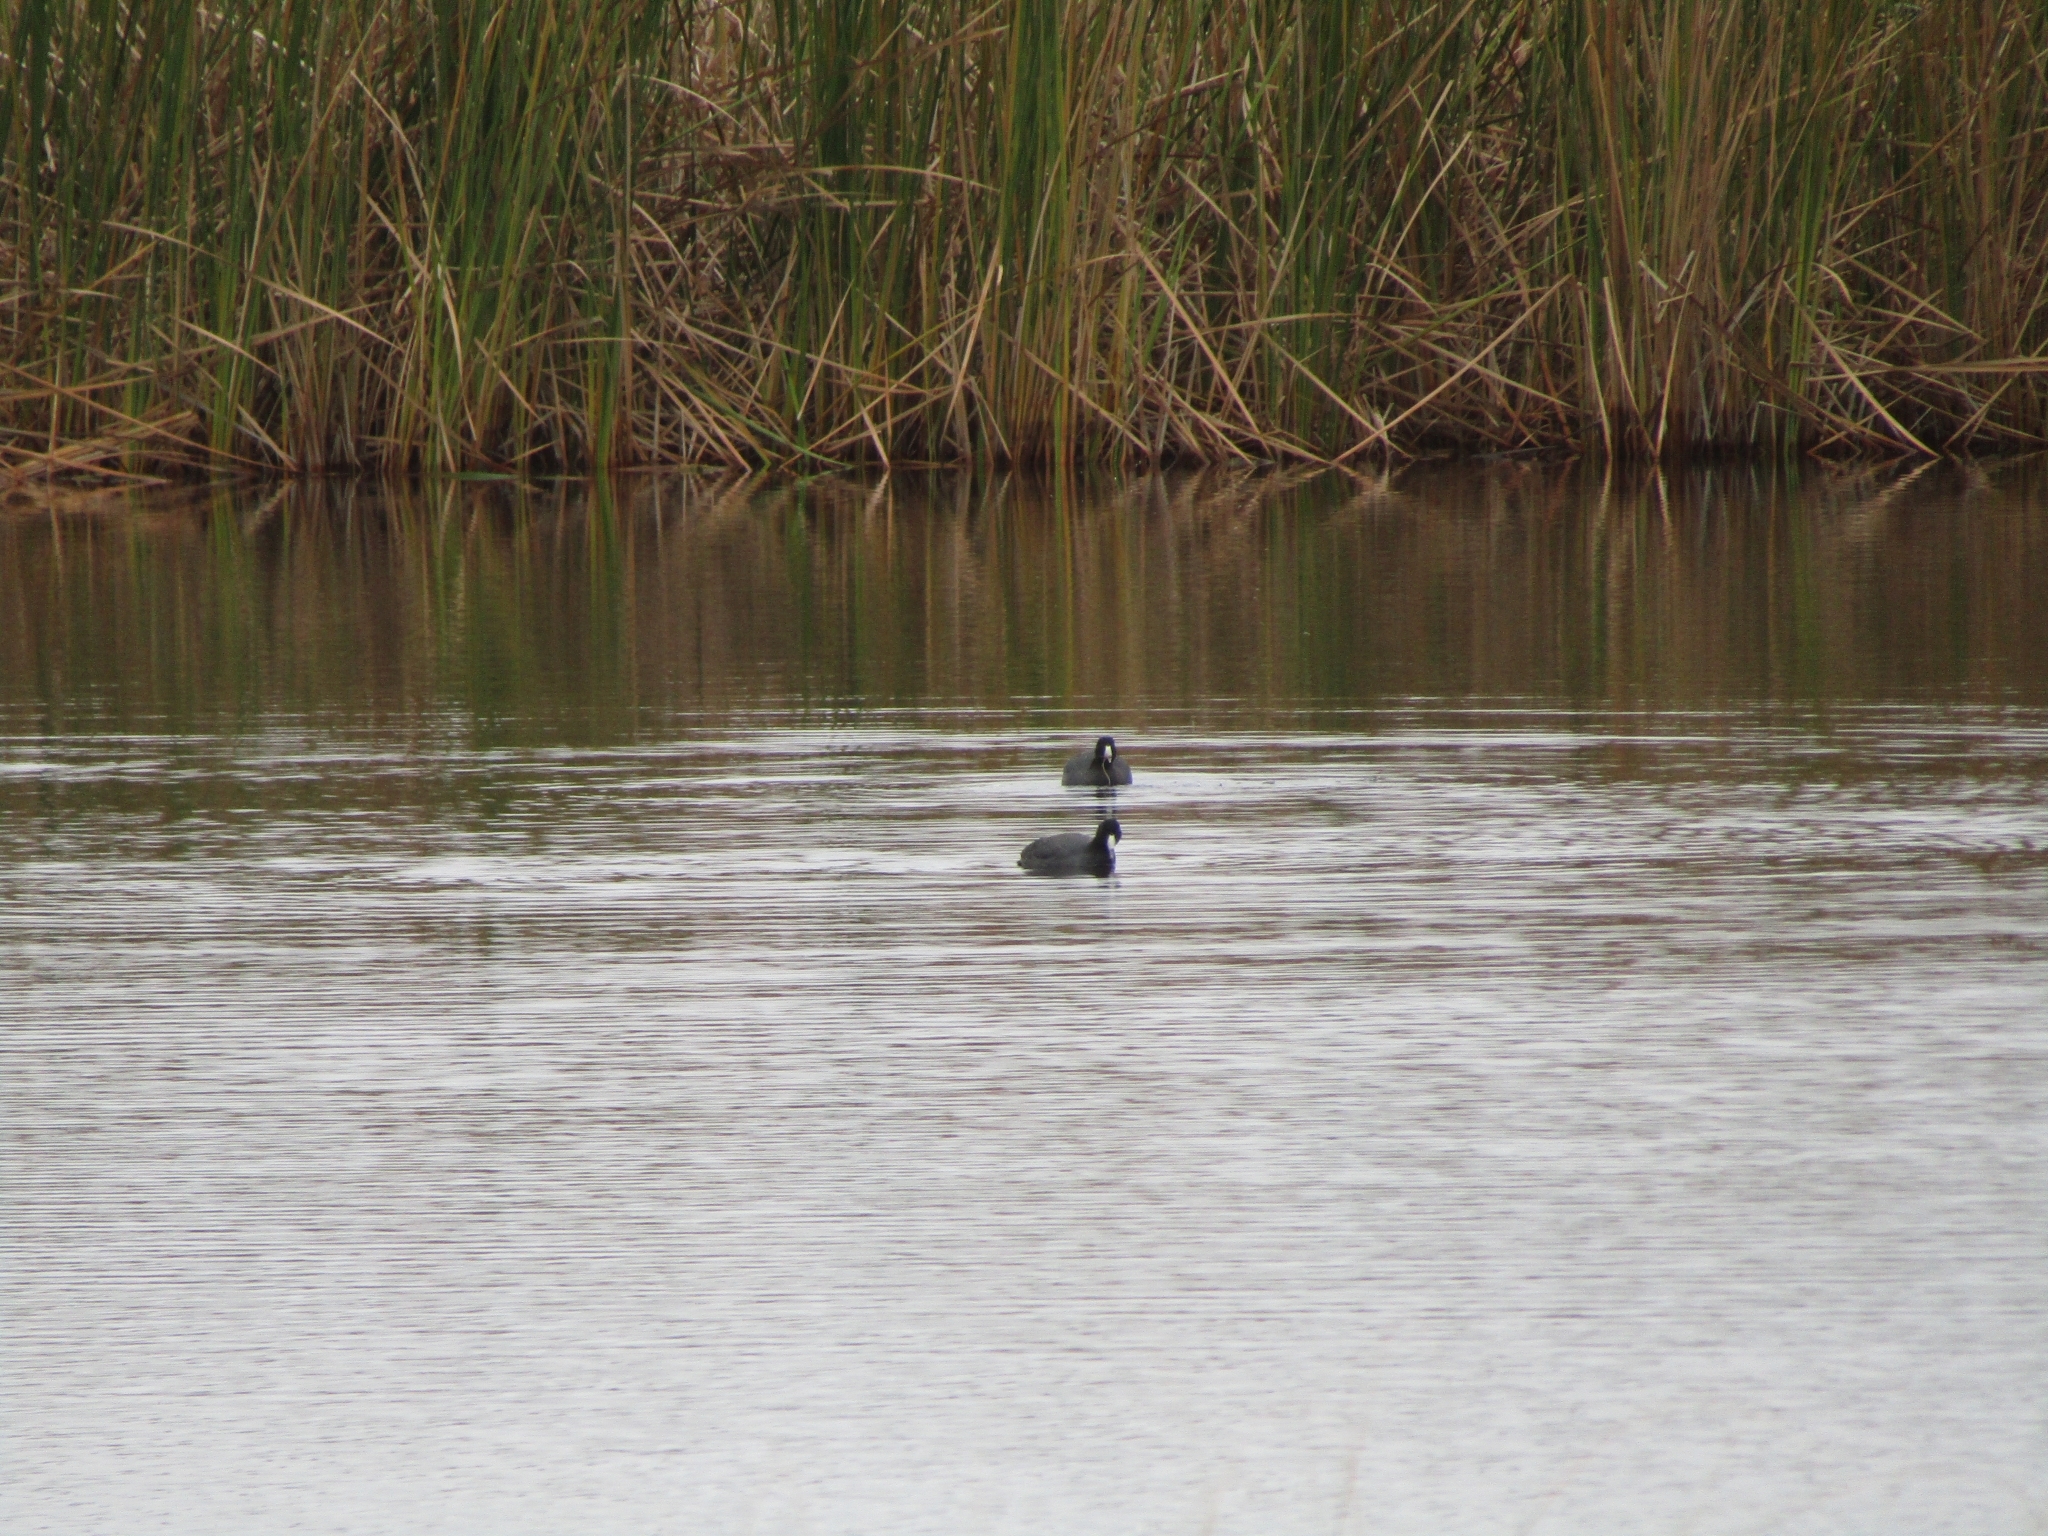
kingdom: Animalia
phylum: Chordata
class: Aves
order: Gruiformes
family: Rallidae
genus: Fulica
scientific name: Fulica americana
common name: American coot
